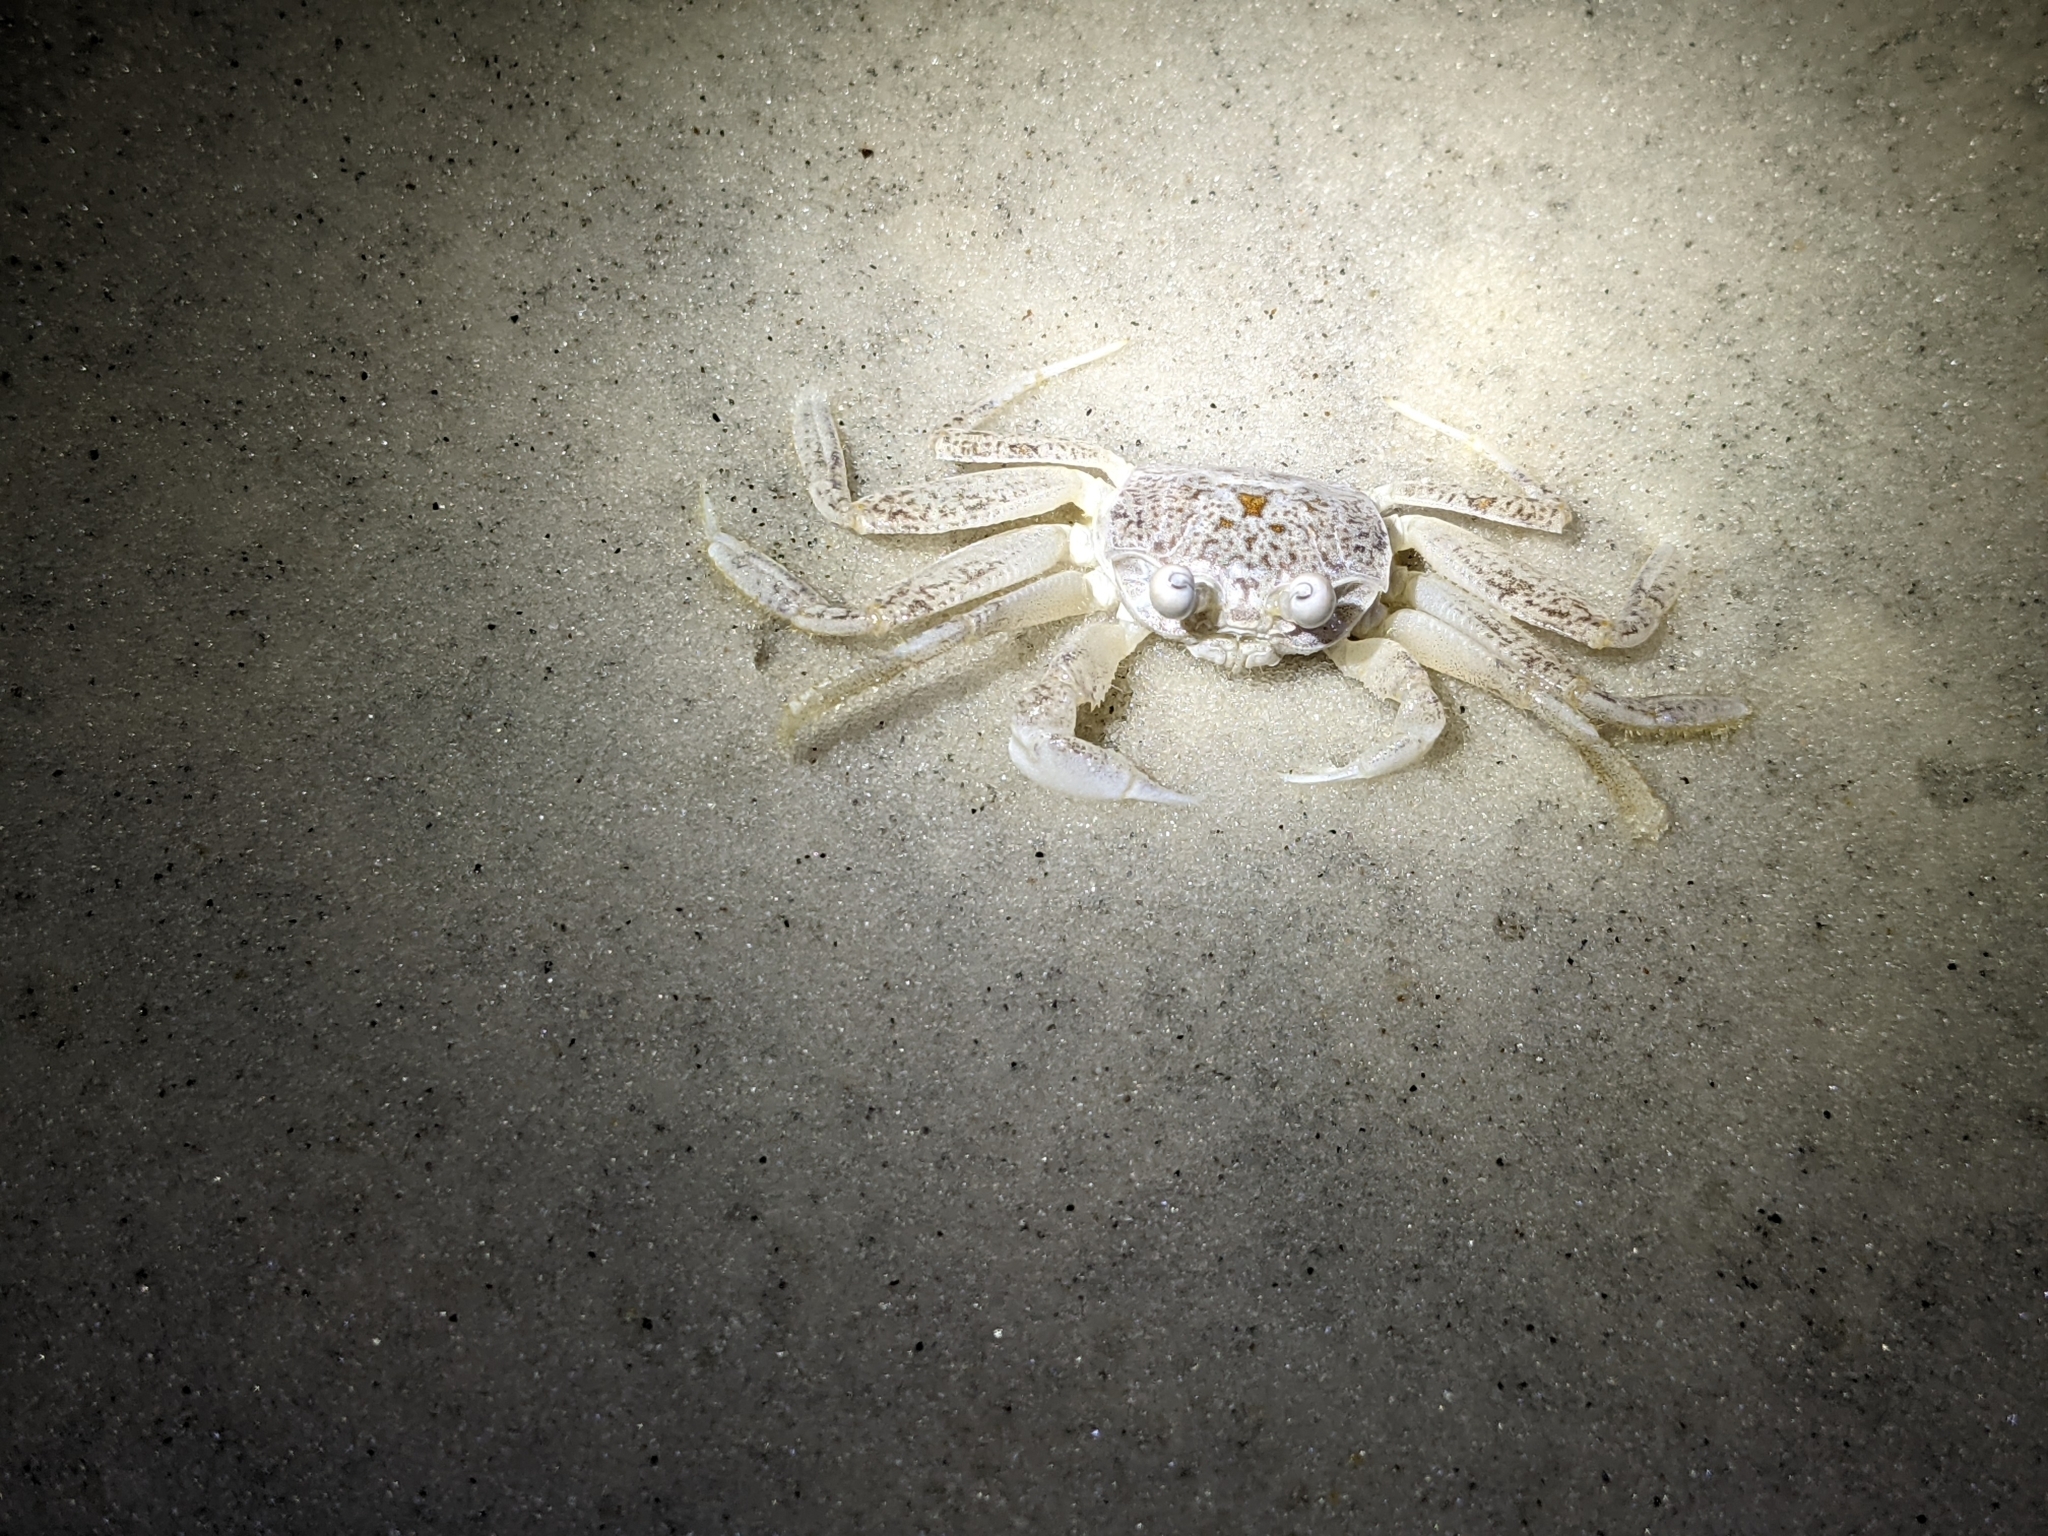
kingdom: Animalia
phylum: Arthropoda
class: Malacostraca
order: Decapoda
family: Ocypodidae
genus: Ocypode
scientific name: Ocypode quadrata
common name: Ghost crab
